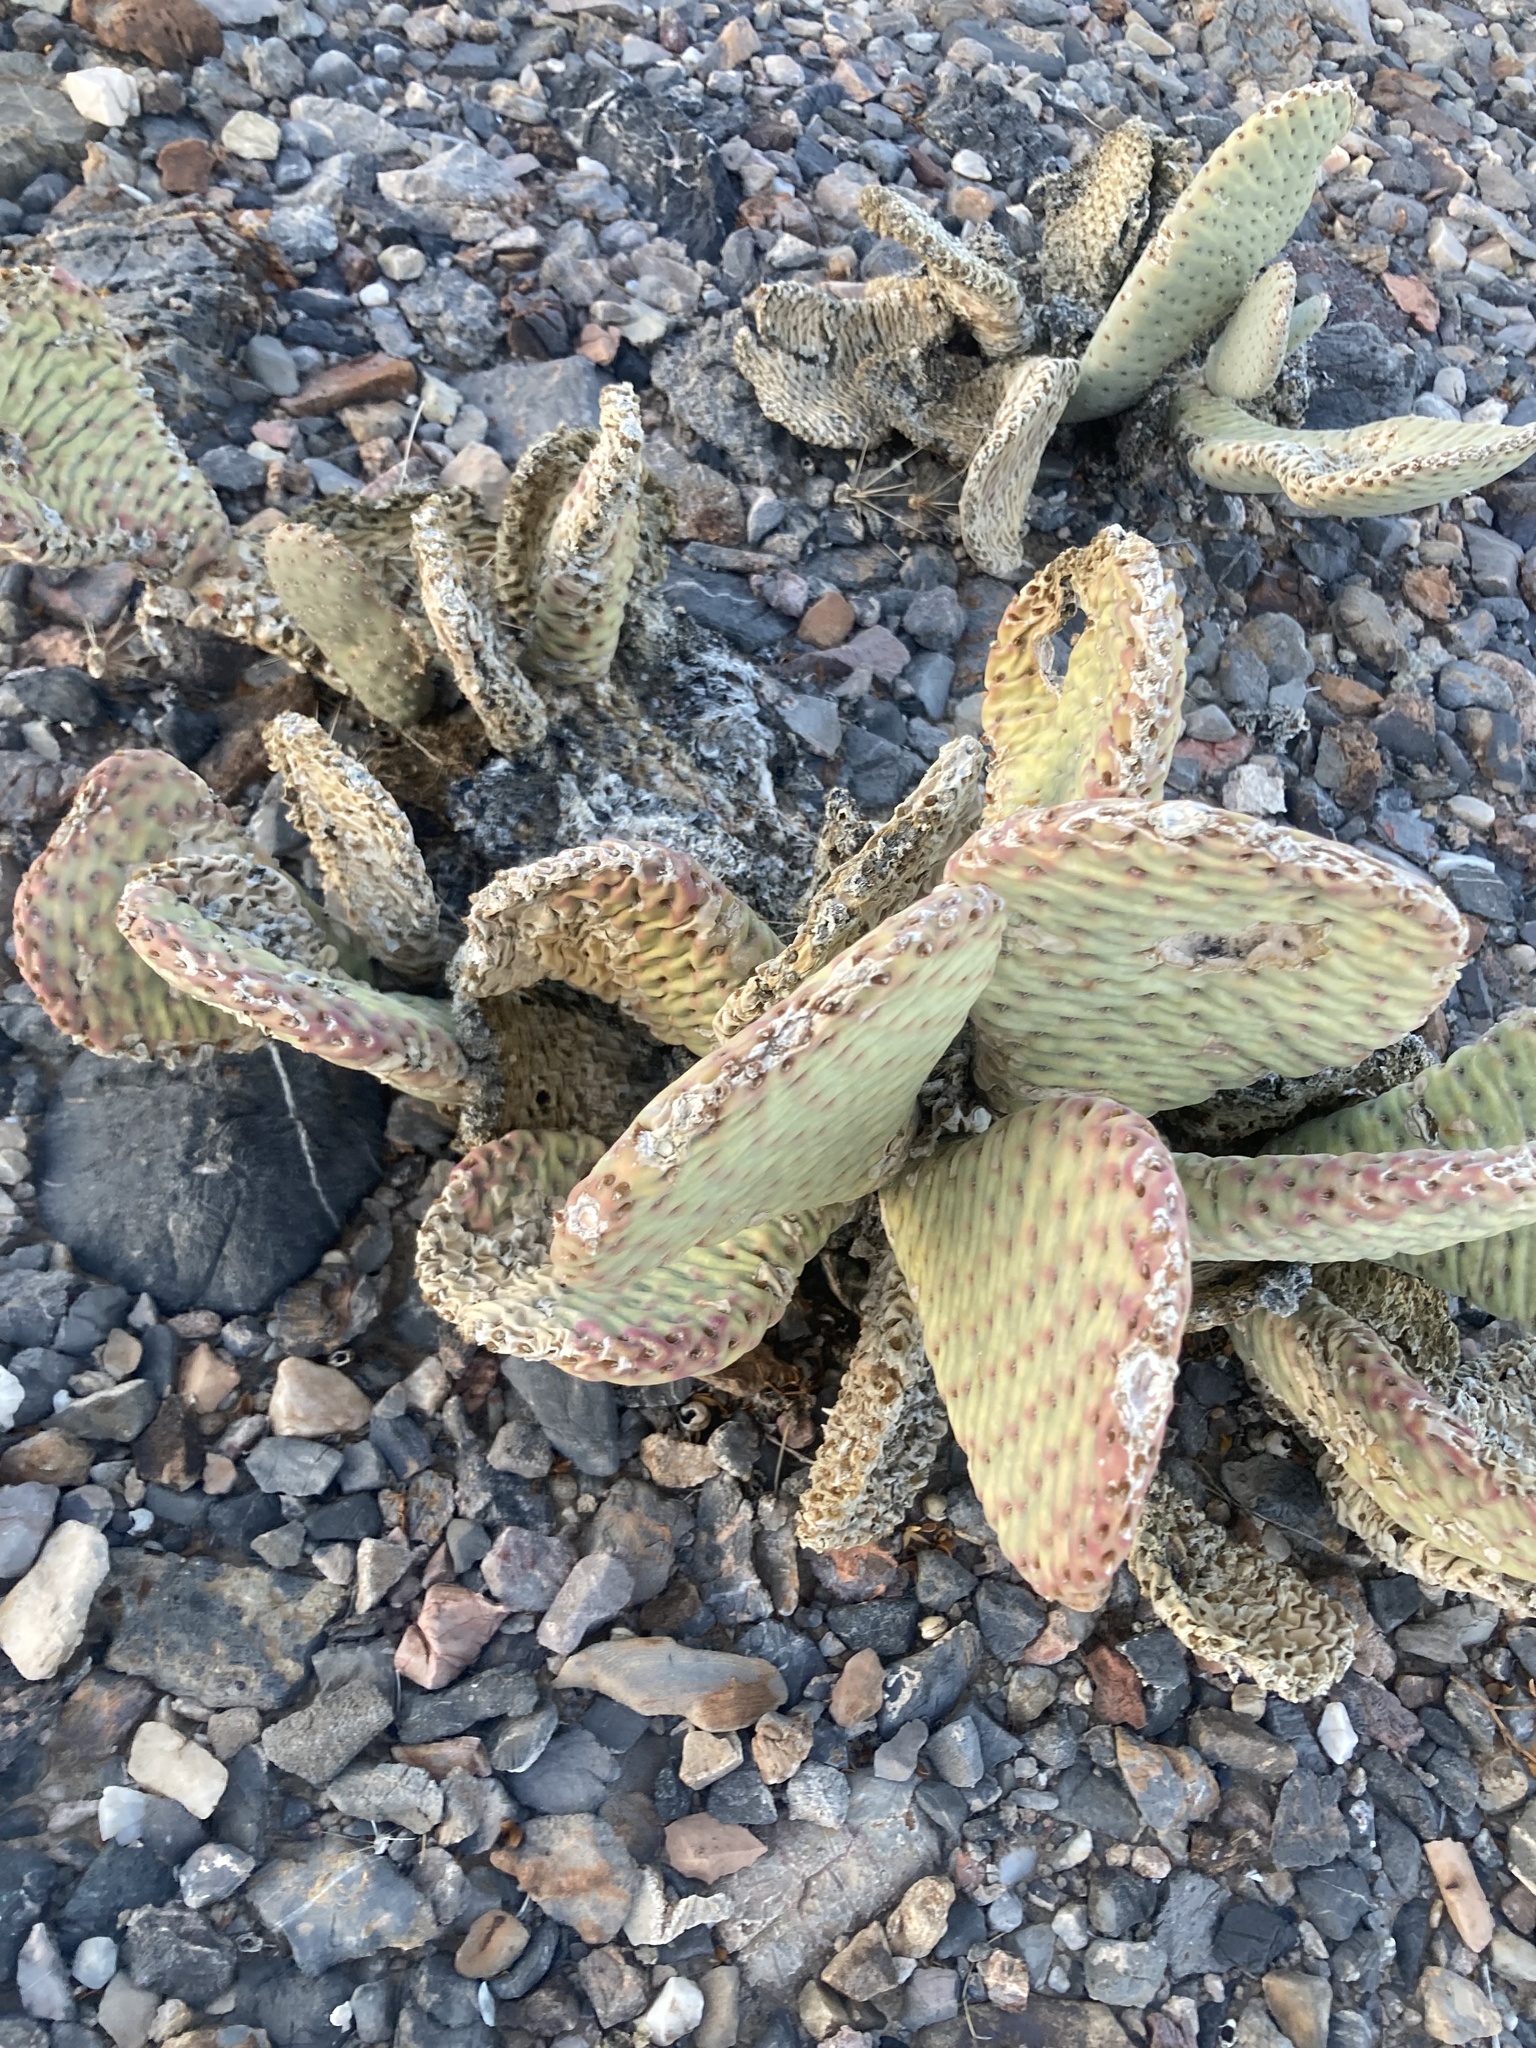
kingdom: Plantae
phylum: Tracheophyta
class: Magnoliopsida
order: Caryophyllales
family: Cactaceae
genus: Opuntia
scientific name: Opuntia basilaris
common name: Beavertail prickly-pear
